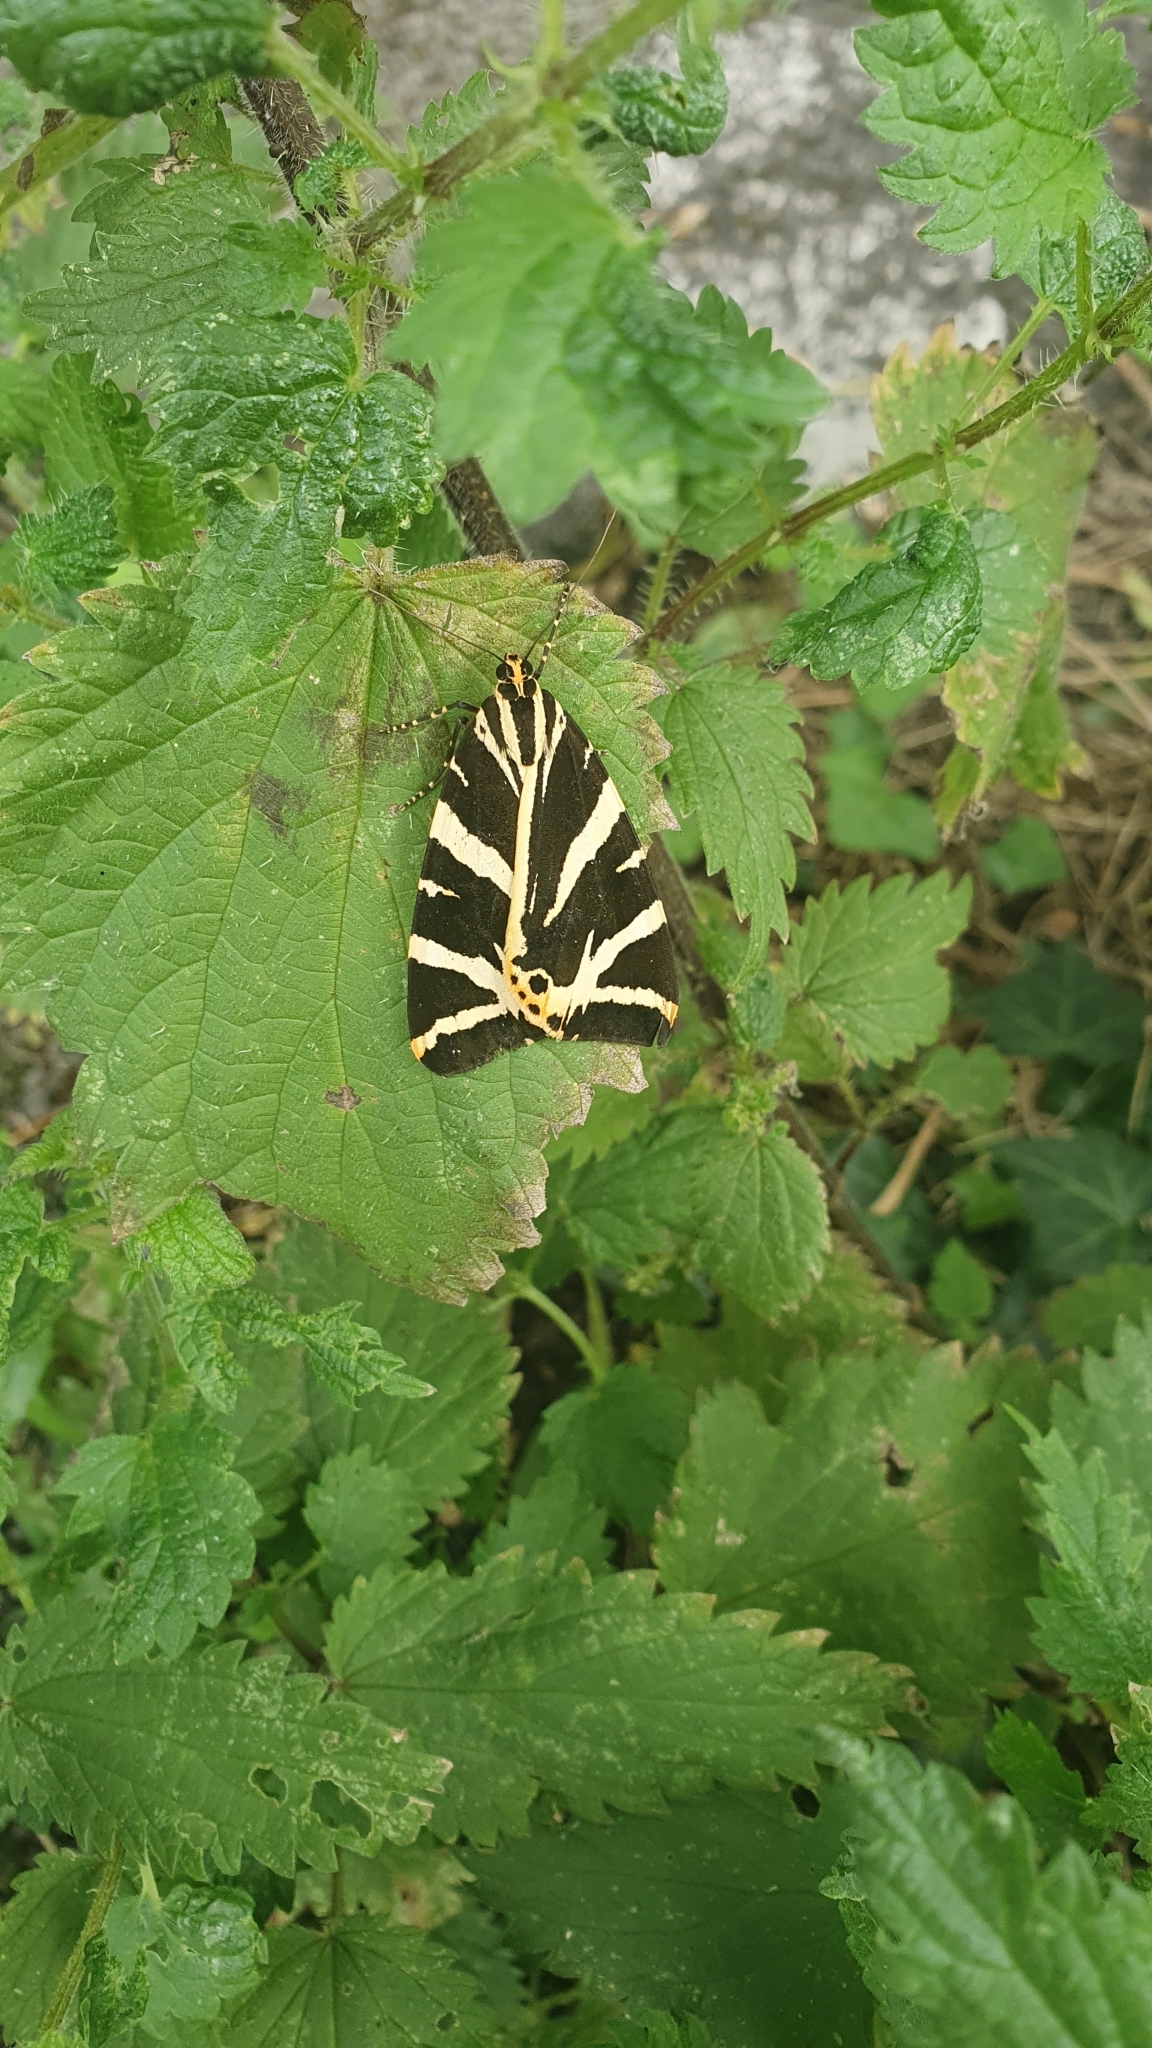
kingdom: Animalia
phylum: Arthropoda
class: Insecta
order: Lepidoptera
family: Erebidae
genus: Euplagia
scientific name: Euplagia quadripunctaria
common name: Jersey tiger
